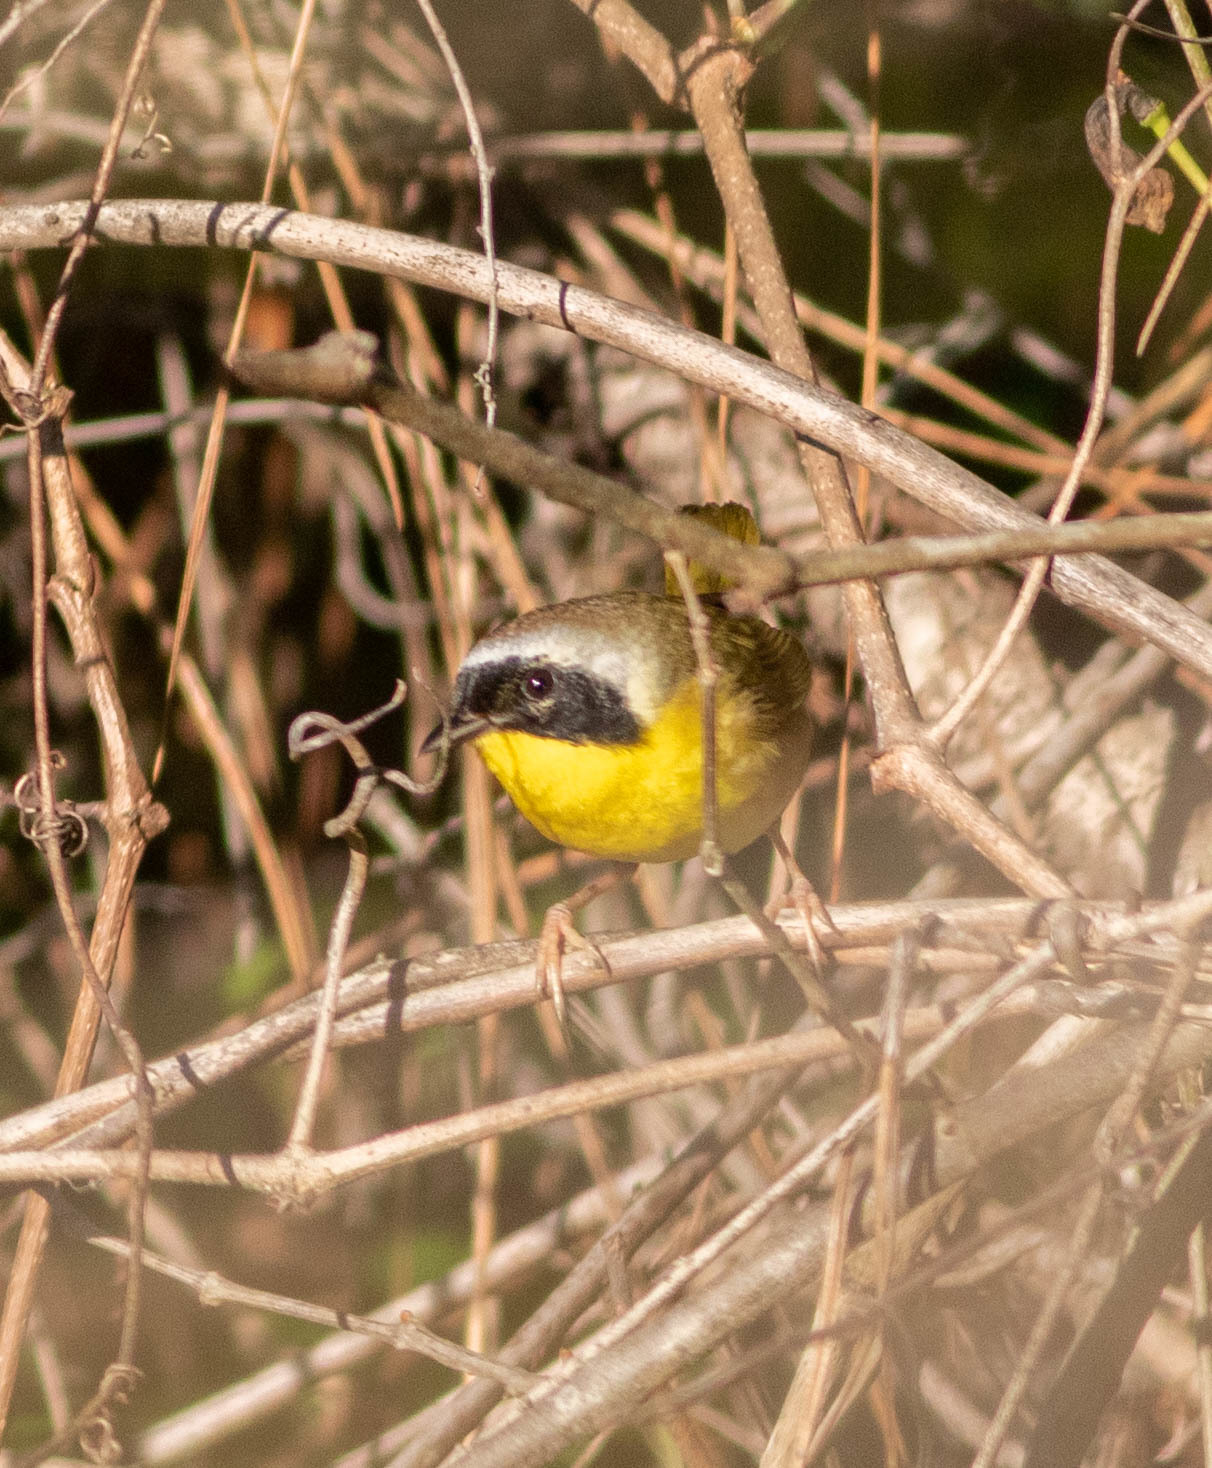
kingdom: Animalia
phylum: Chordata
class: Aves
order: Passeriformes
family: Parulidae
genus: Geothlypis
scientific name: Geothlypis trichas
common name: Common yellowthroat
